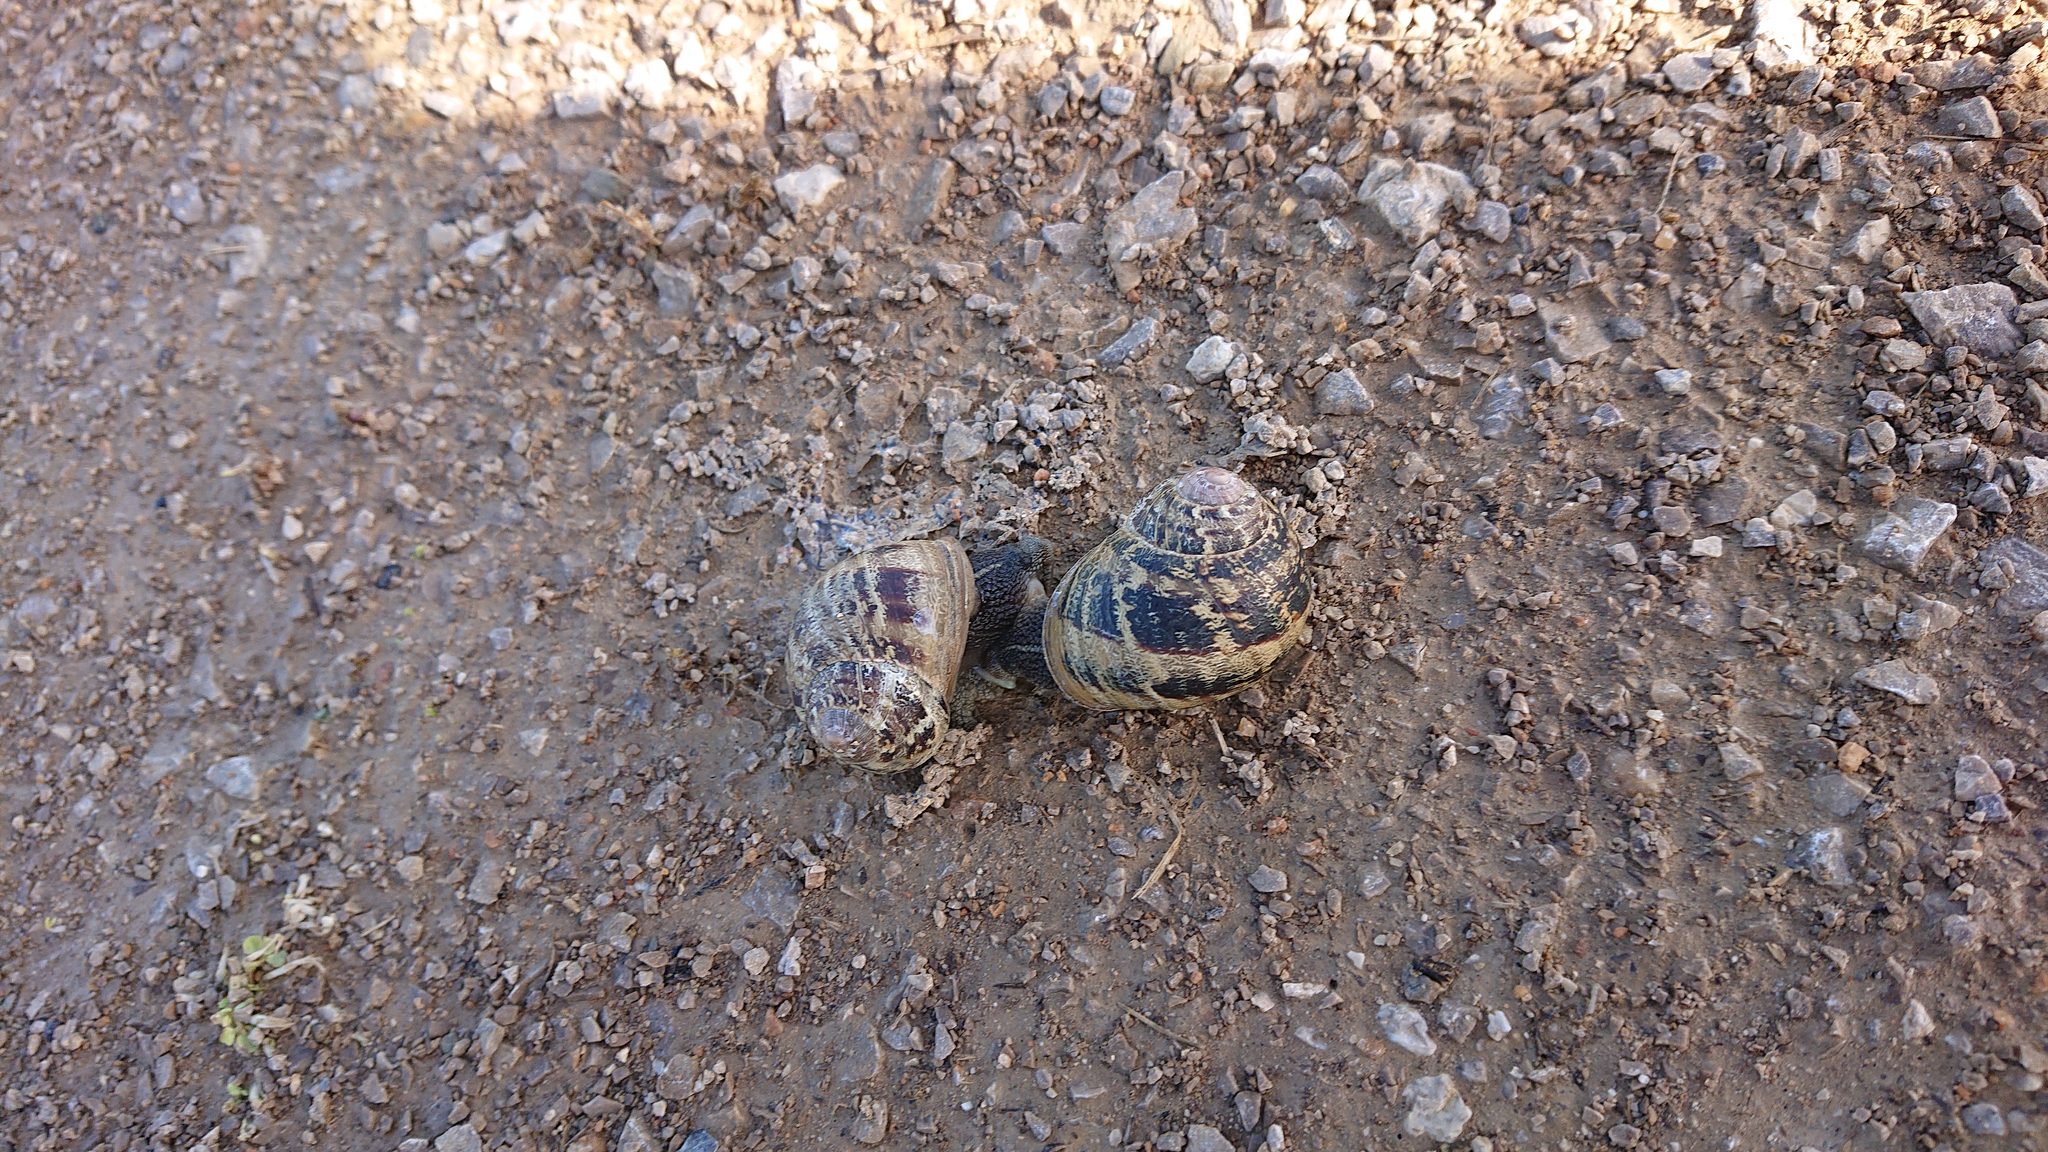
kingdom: Animalia
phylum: Mollusca
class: Gastropoda
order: Stylommatophora
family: Helicidae
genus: Cornu
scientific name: Cornu aspersum
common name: Brown garden snail
